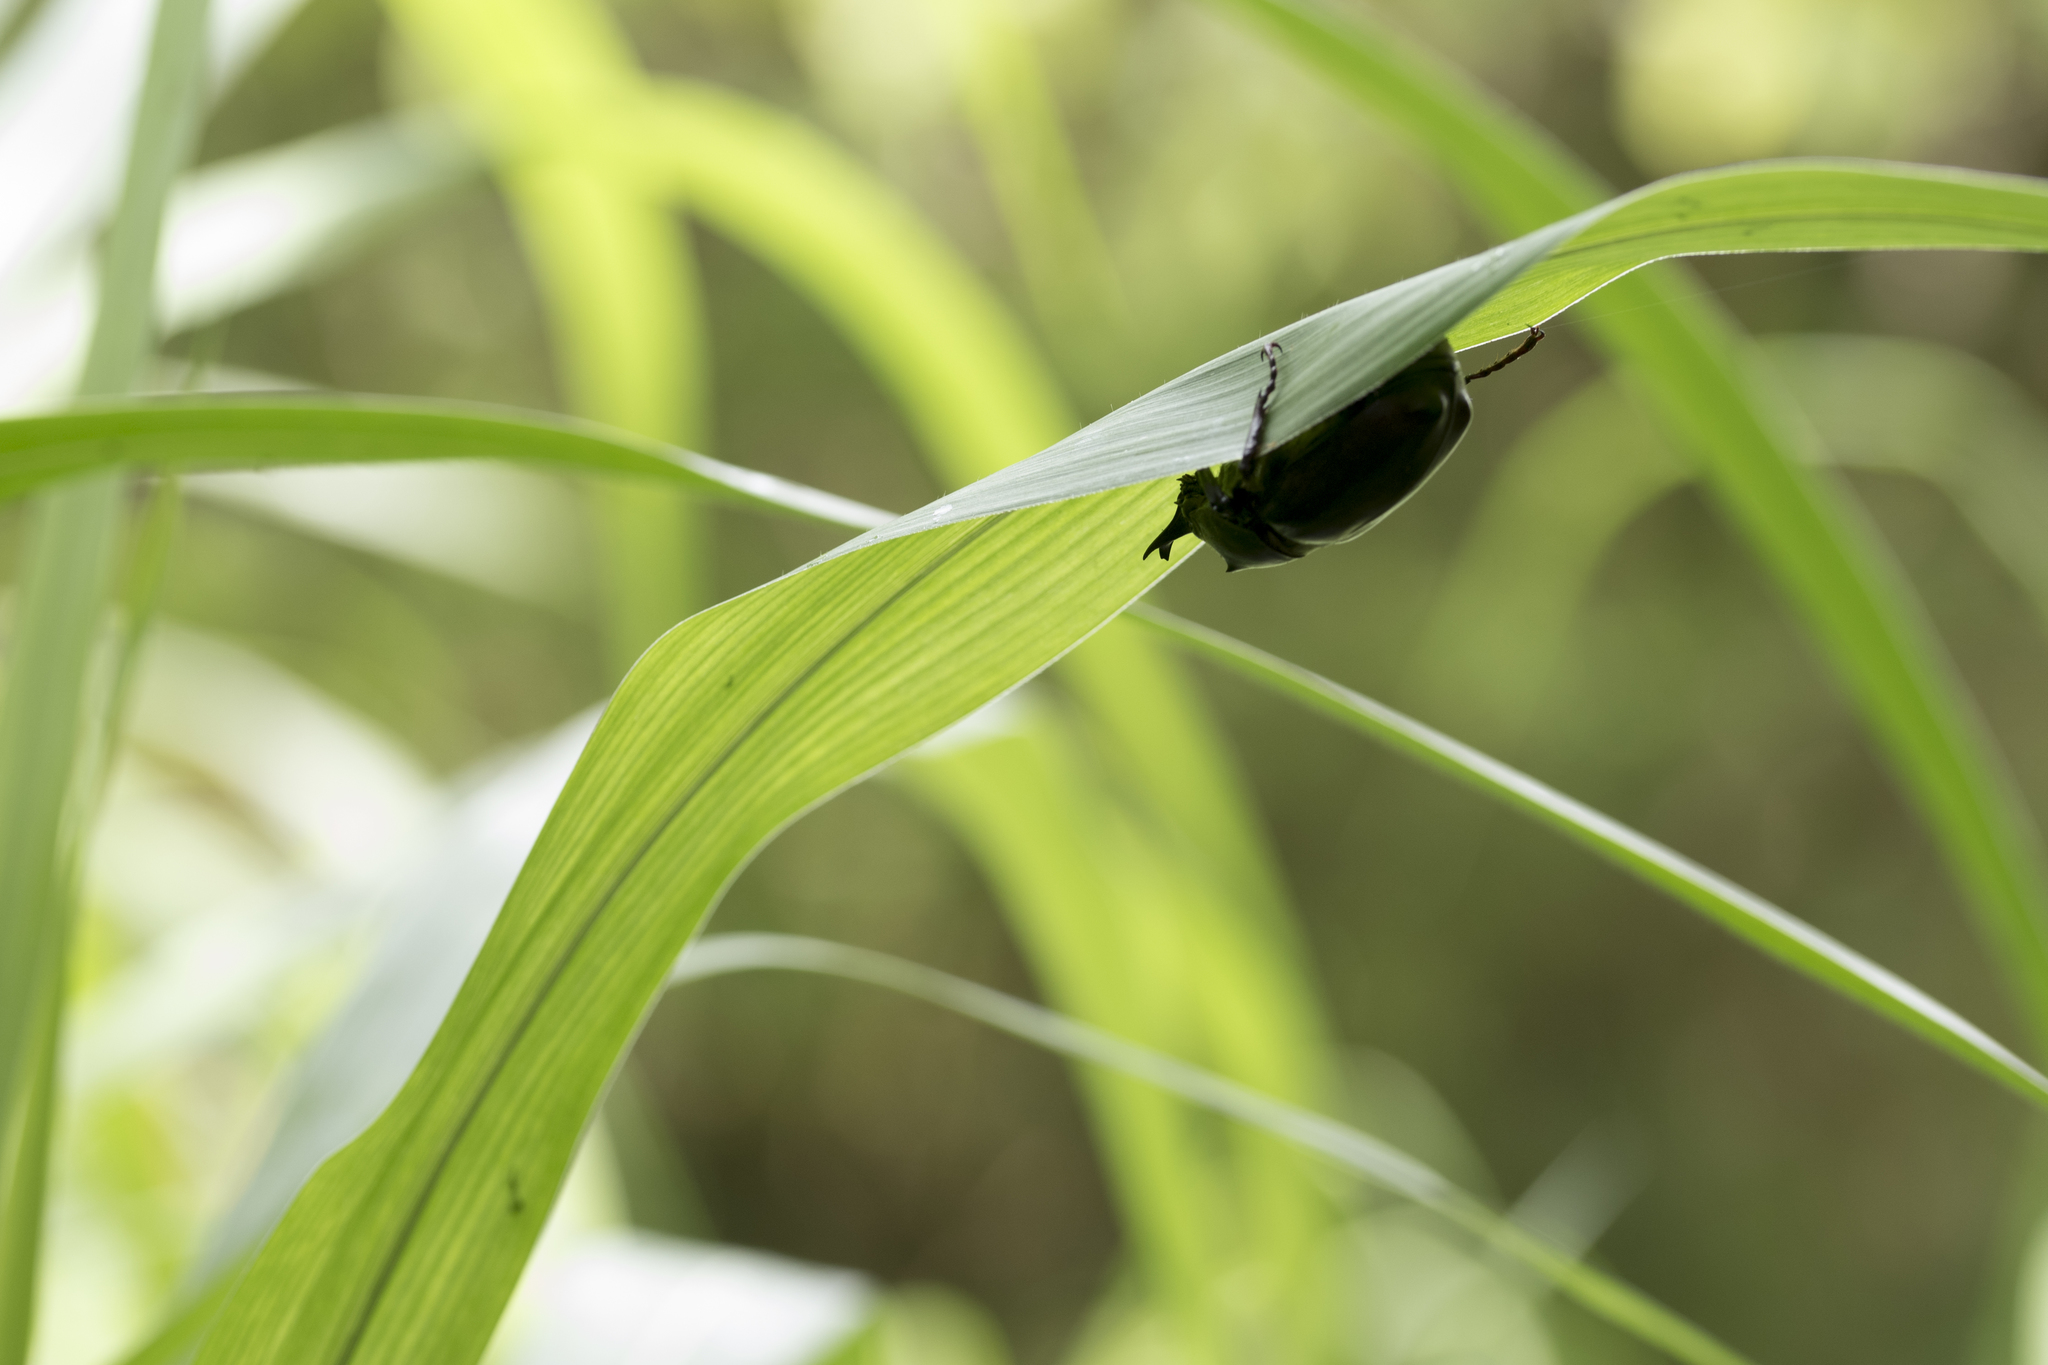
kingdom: Animalia
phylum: Arthropoda
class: Insecta
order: Coleoptera
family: Scarabaeidae
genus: Trypoxylus
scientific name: Trypoxylus dichotomus
